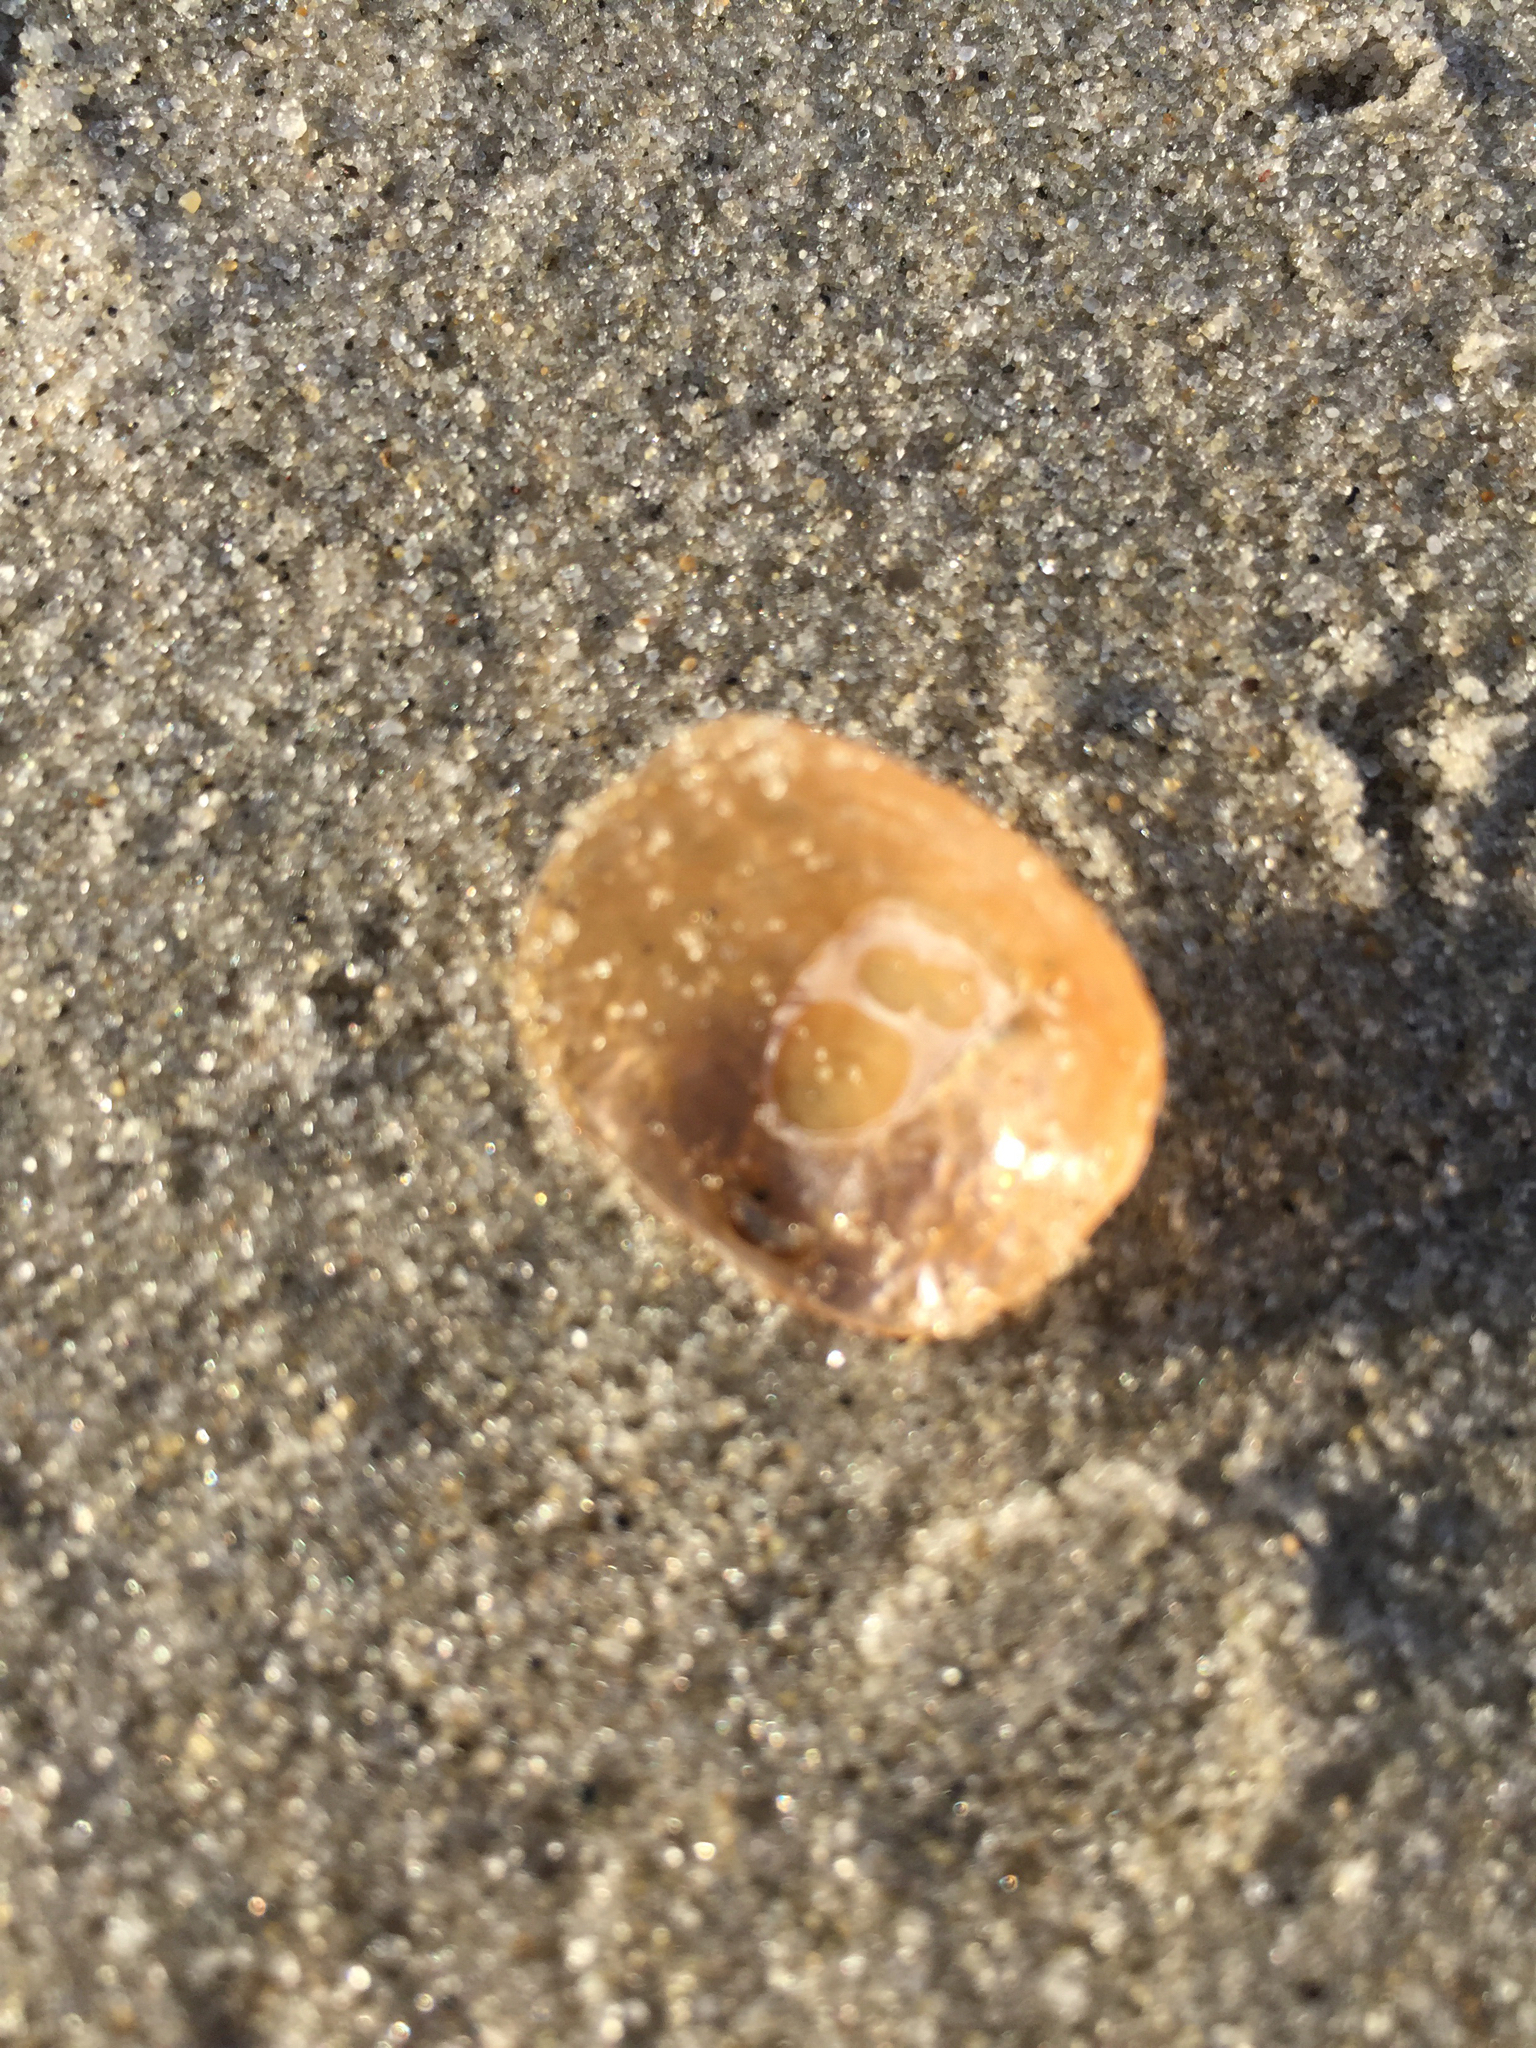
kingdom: Animalia
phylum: Mollusca
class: Bivalvia
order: Pectinida
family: Anomiidae
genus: Anomia
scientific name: Anomia simplex
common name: Common jingle shell
